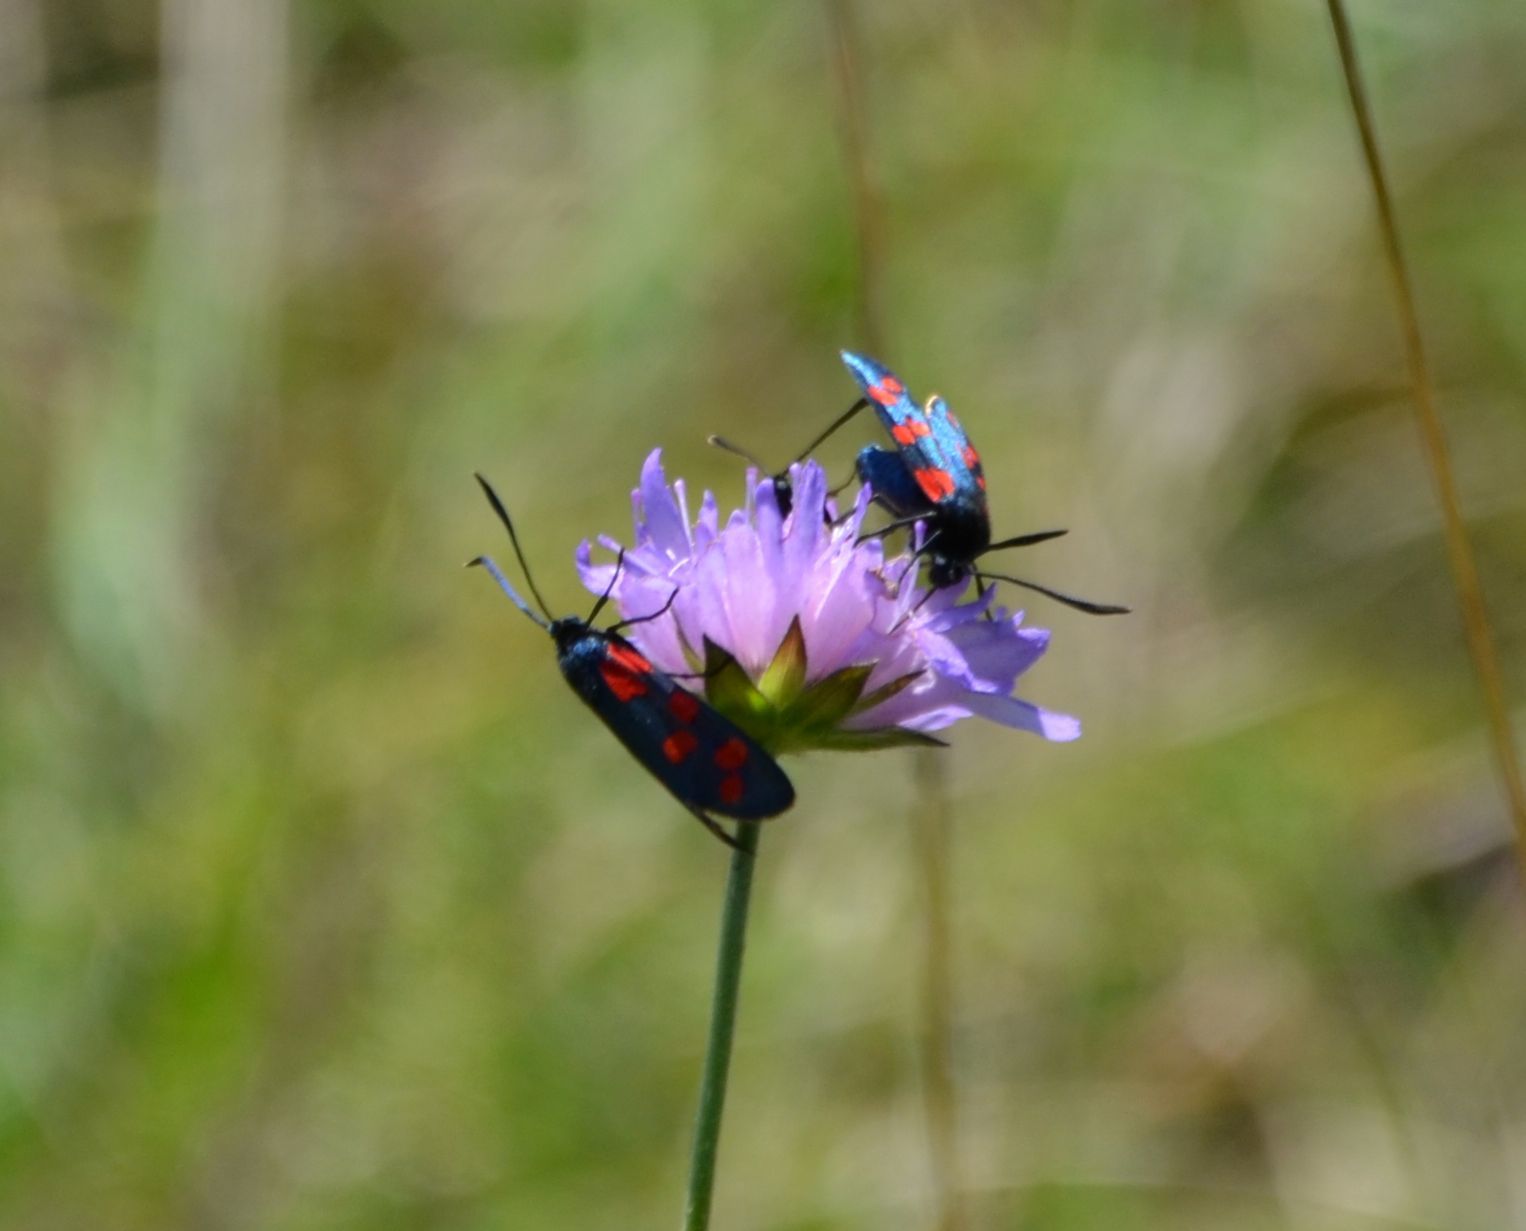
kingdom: Animalia
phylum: Arthropoda
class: Insecta
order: Lepidoptera
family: Zygaenidae
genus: Zygaena
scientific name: Zygaena filipendulae
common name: Six-spot burnet
